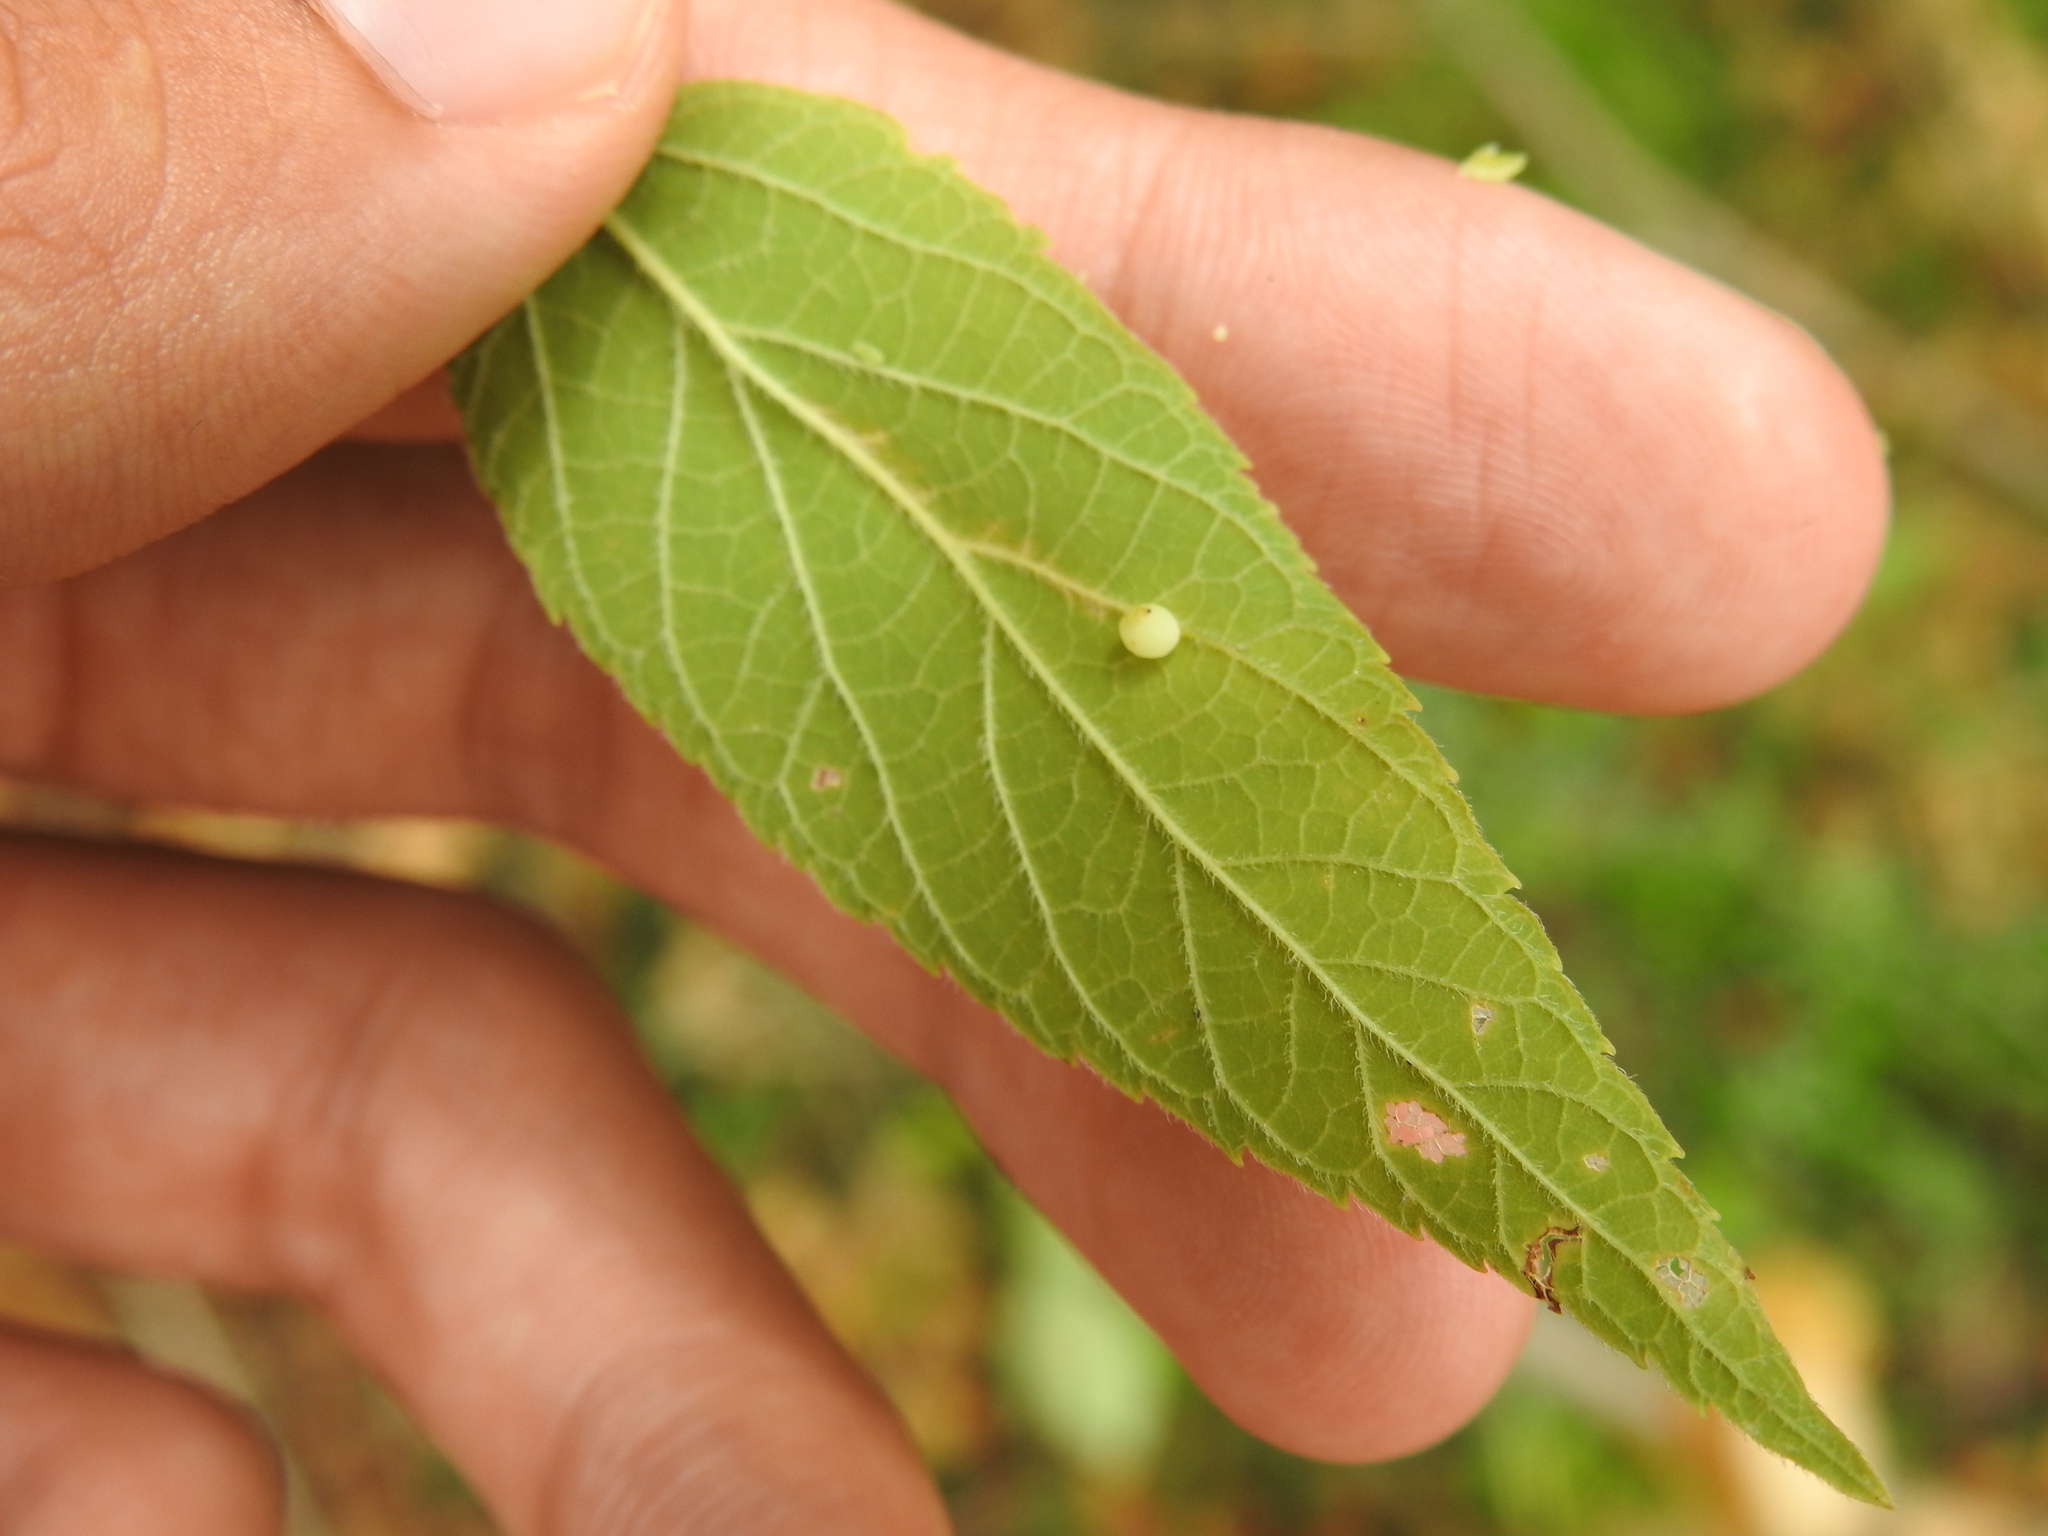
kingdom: Animalia
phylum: Arthropoda
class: Insecta
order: Diptera
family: Cecidomyiidae
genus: Celticecis
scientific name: Celticecis globosa
